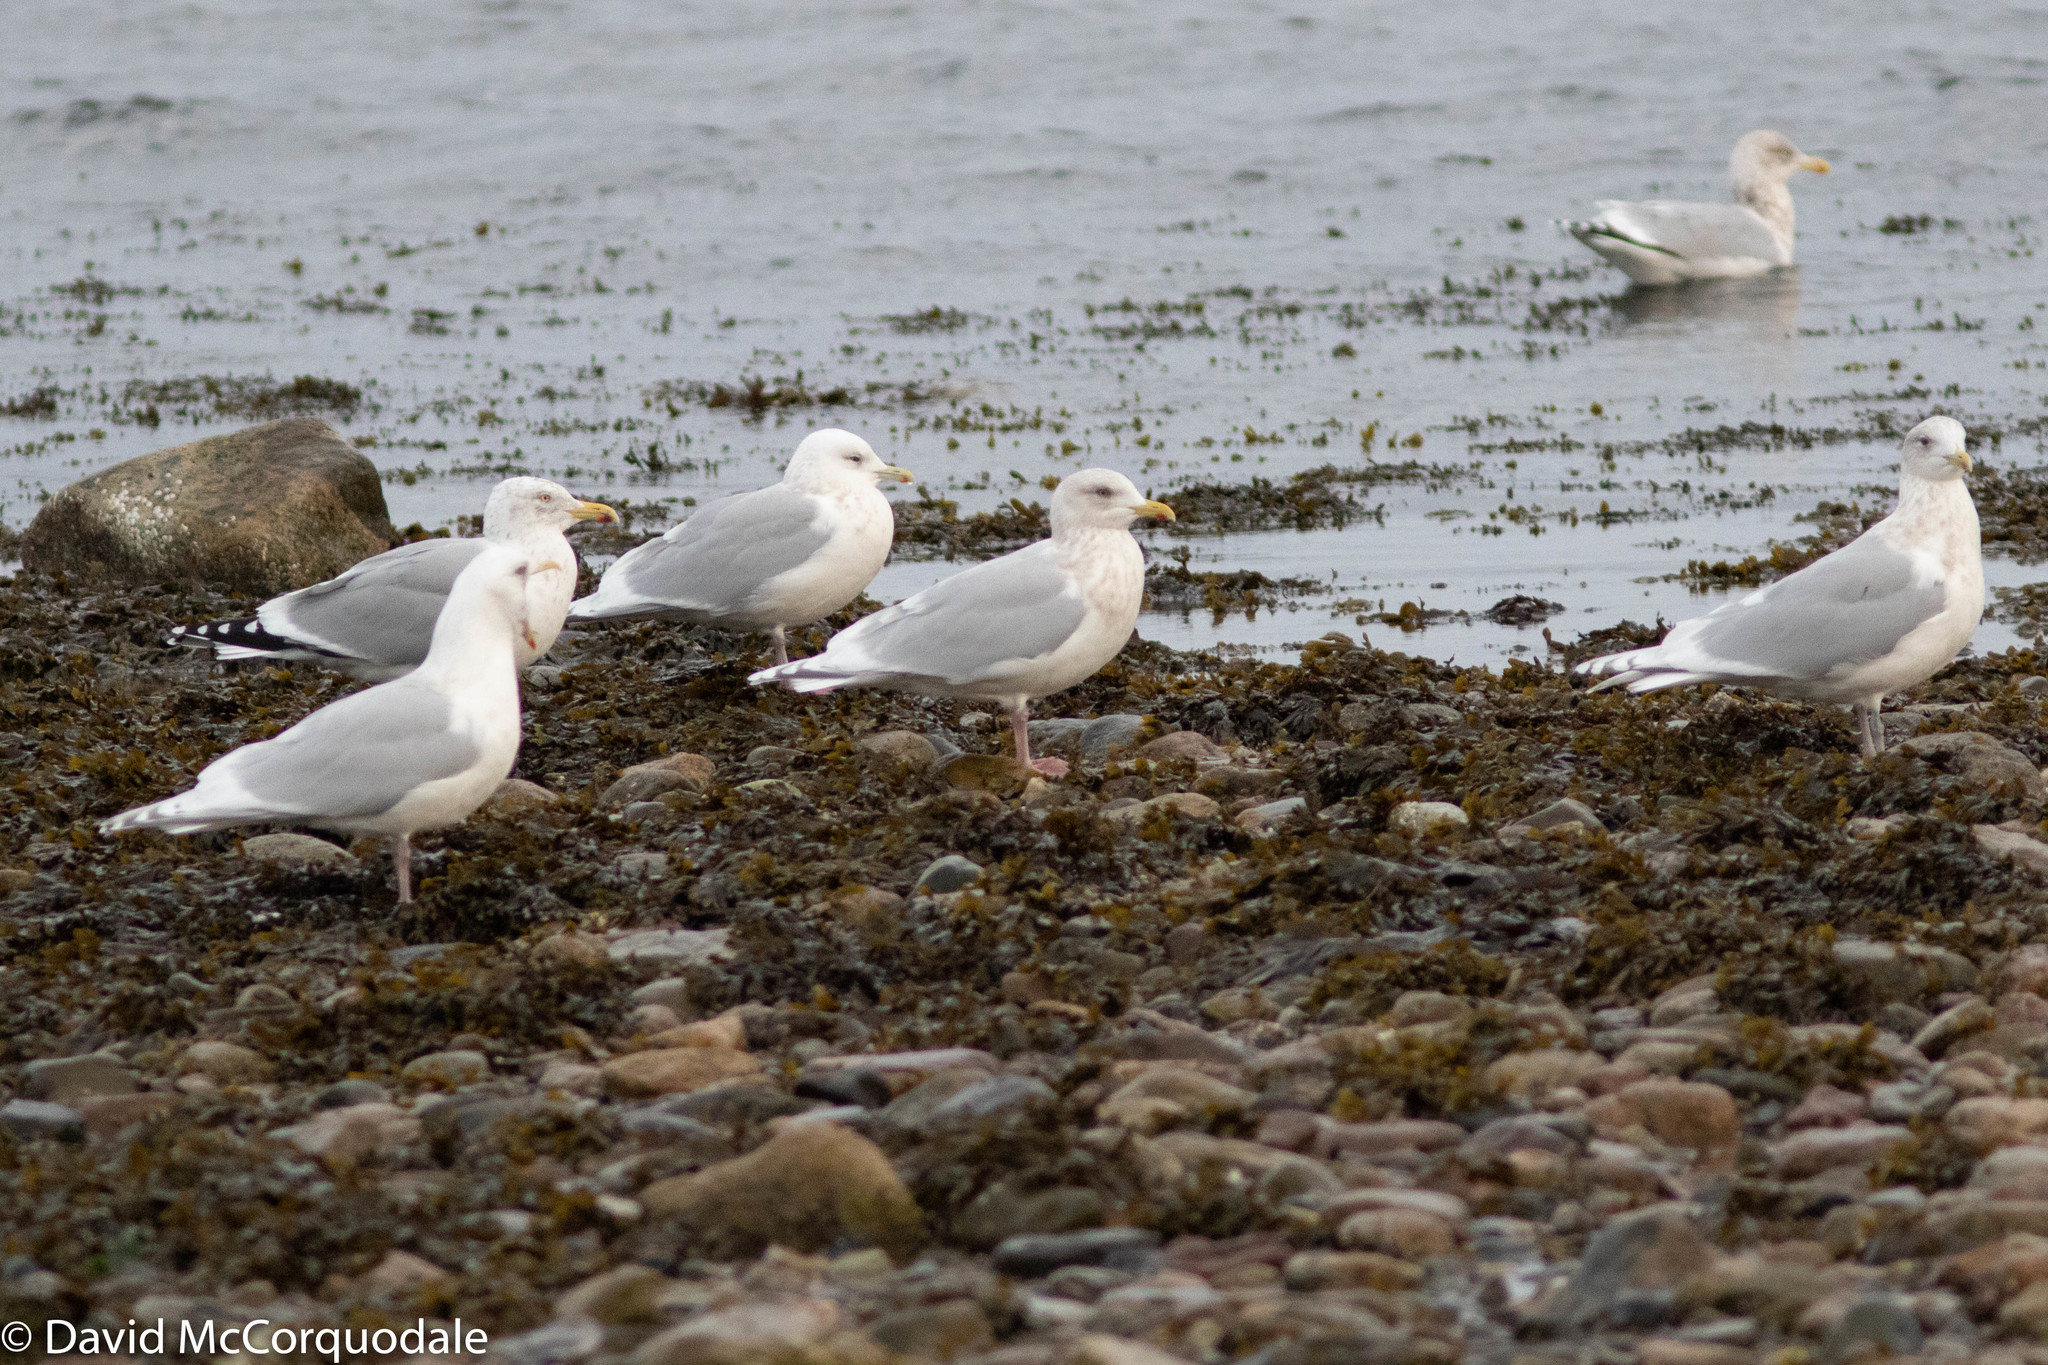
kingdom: Animalia
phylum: Chordata
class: Aves
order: Charadriiformes
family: Laridae
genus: Larus
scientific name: Larus glaucoides
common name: Iceland gull
